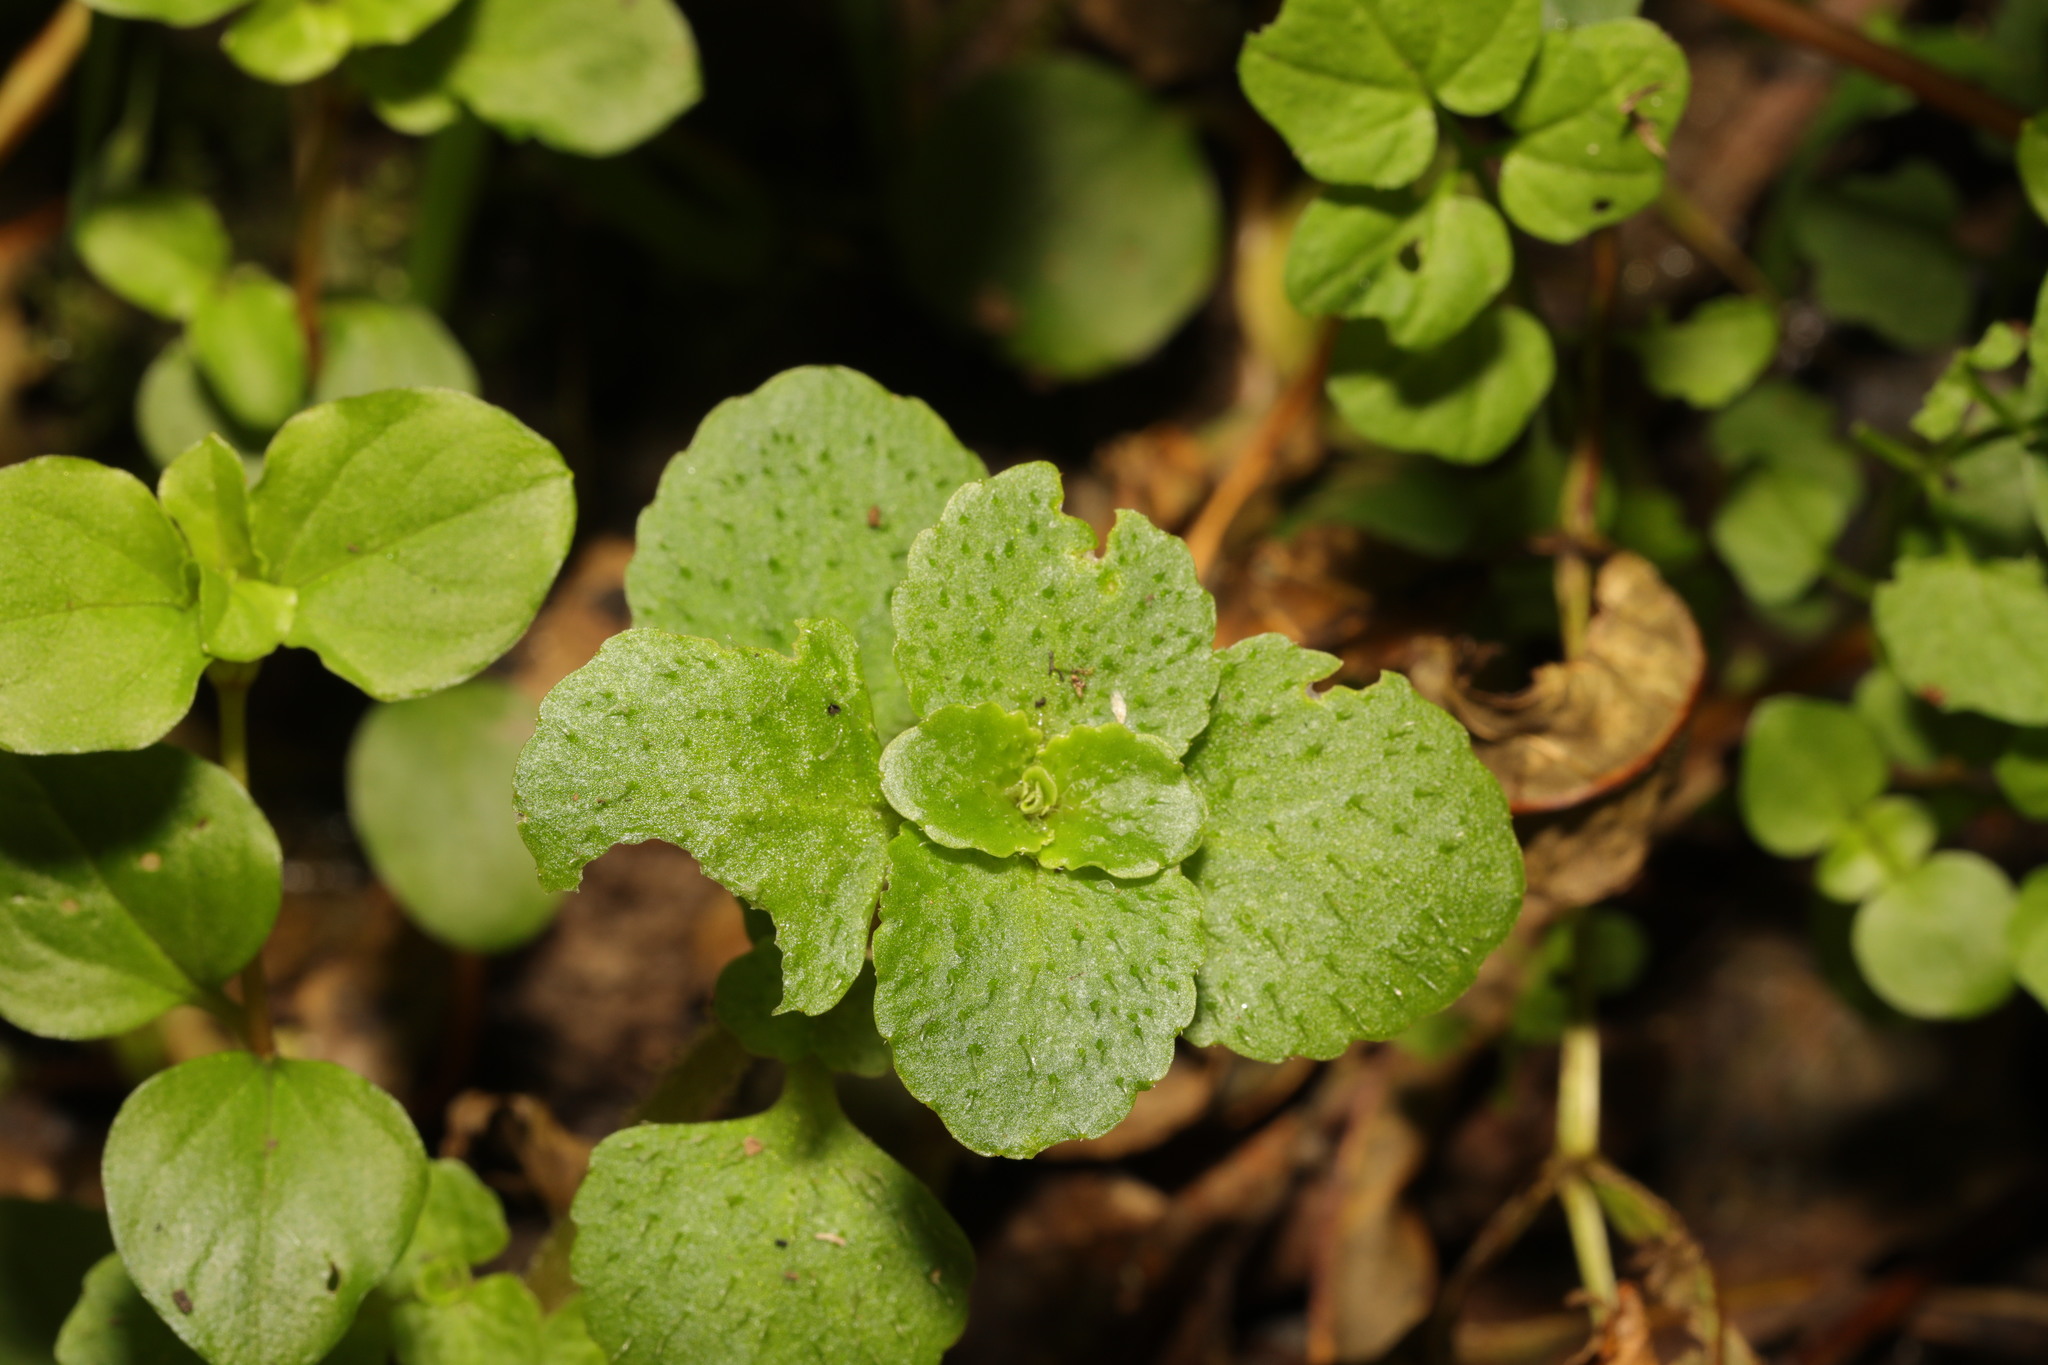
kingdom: Plantae
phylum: Tracheophyta
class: Magnoliopsida
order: Saxifragales
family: Saxifragaceae
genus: Chrysosplenium
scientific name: Chrysosplenium oppositifolium
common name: Opposite-leaved golden-saxifrage
